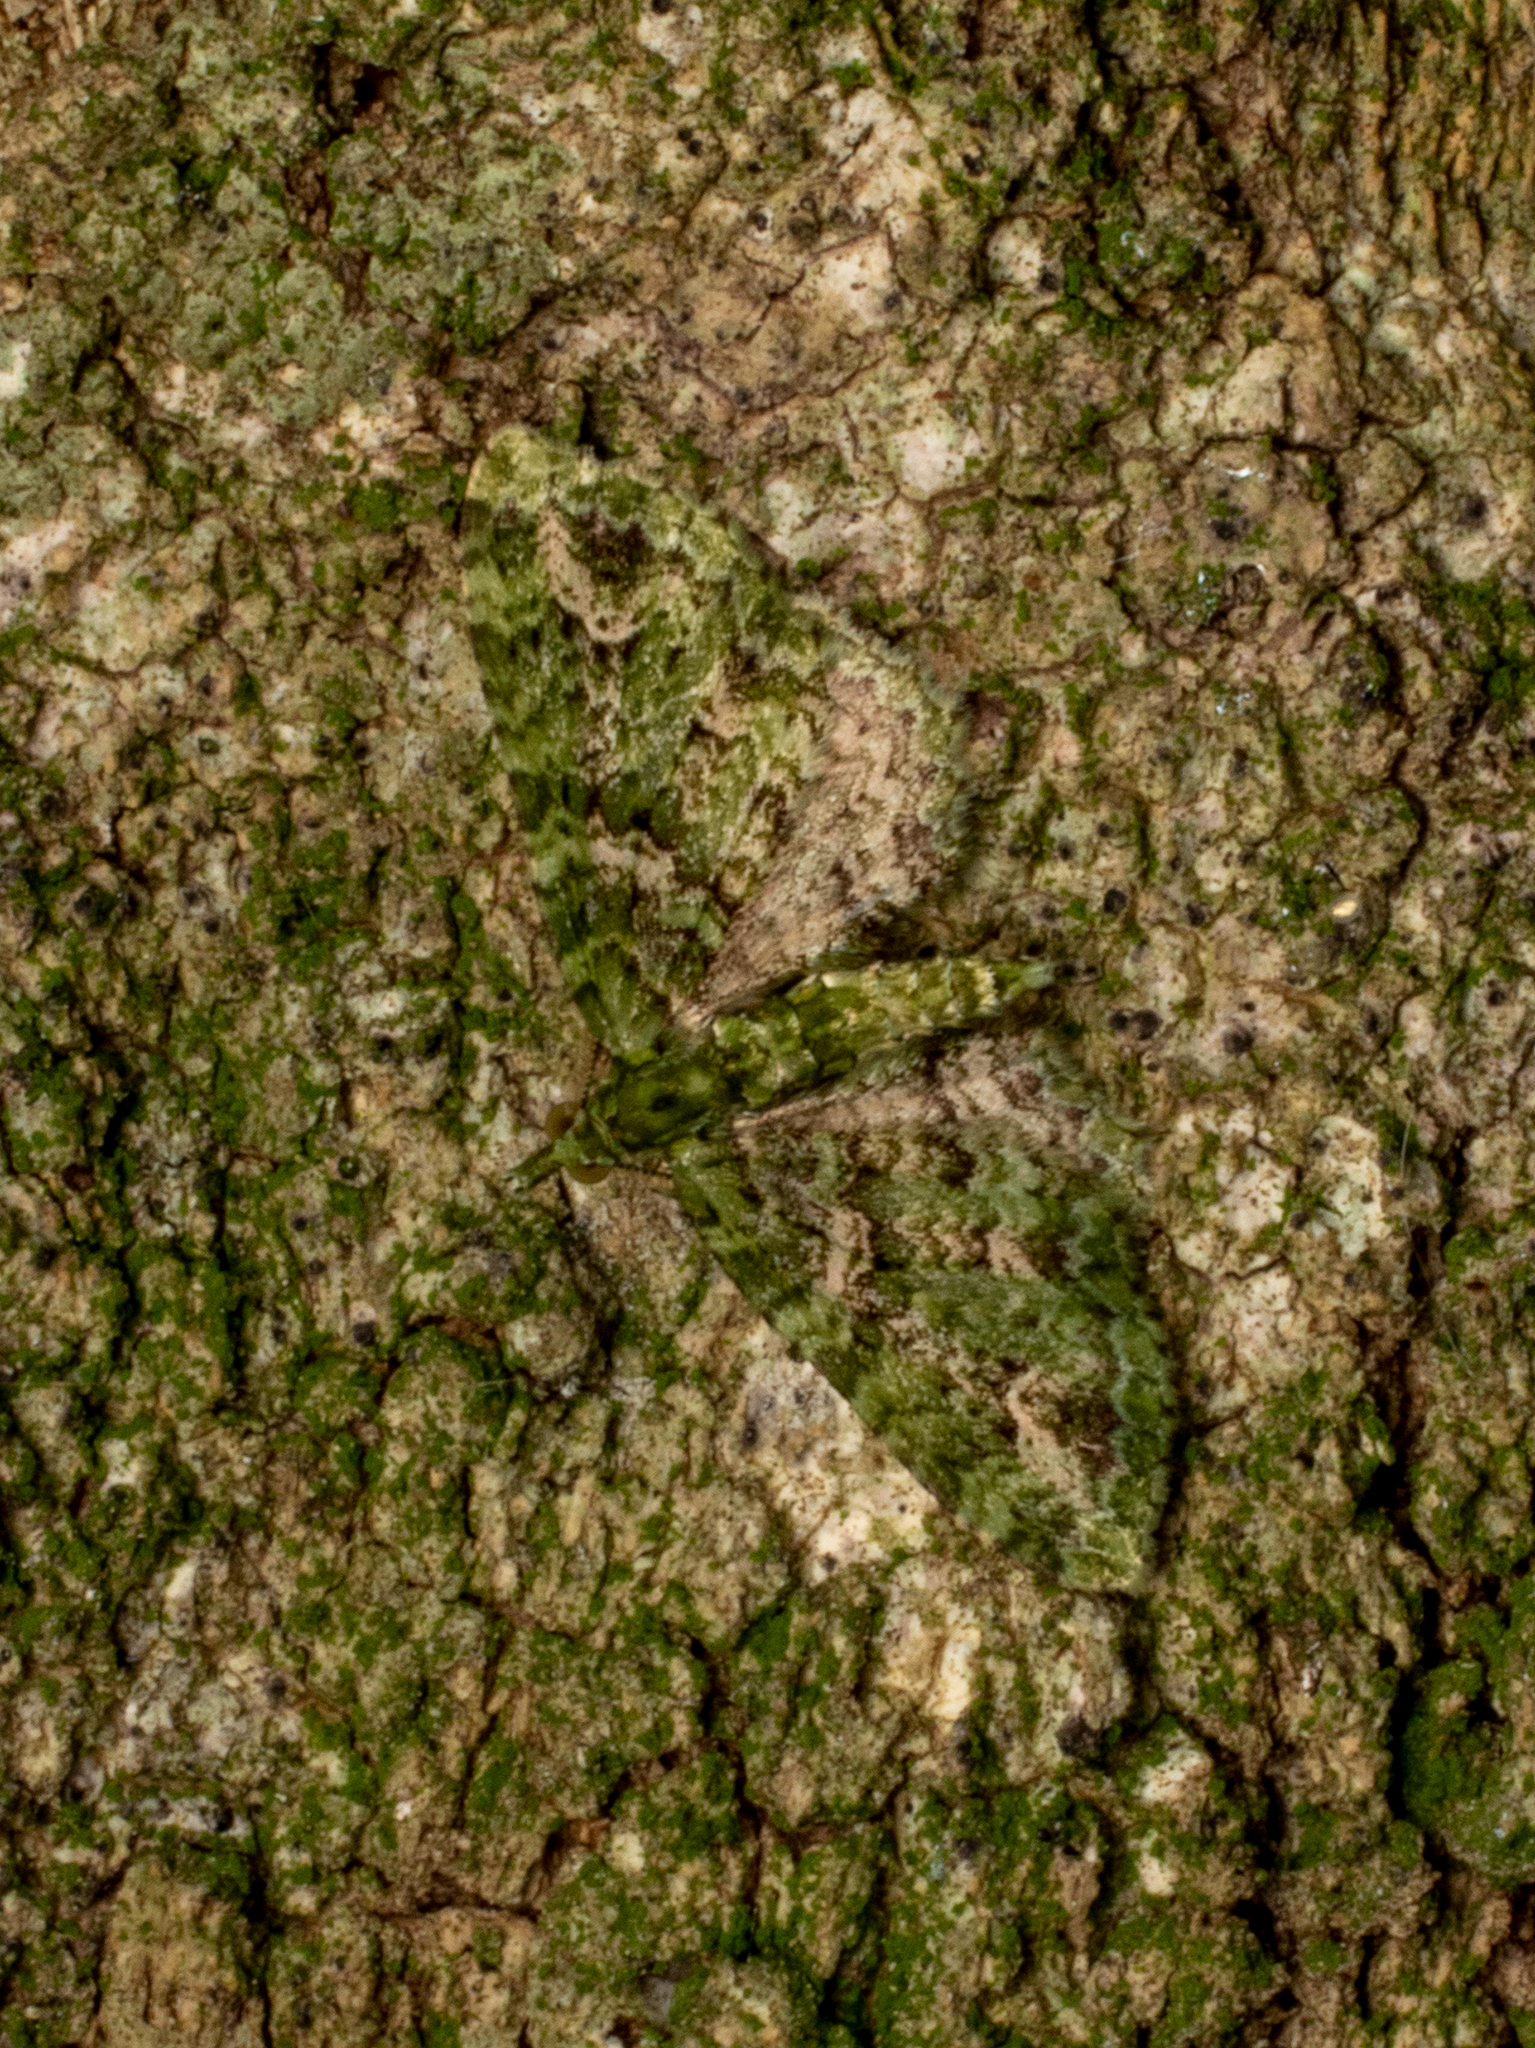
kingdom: Animalia
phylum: Arthropoda
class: Insecta
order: Lepidoptera
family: Geometridae
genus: Pasiphila
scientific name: Pasiphila muscosata
